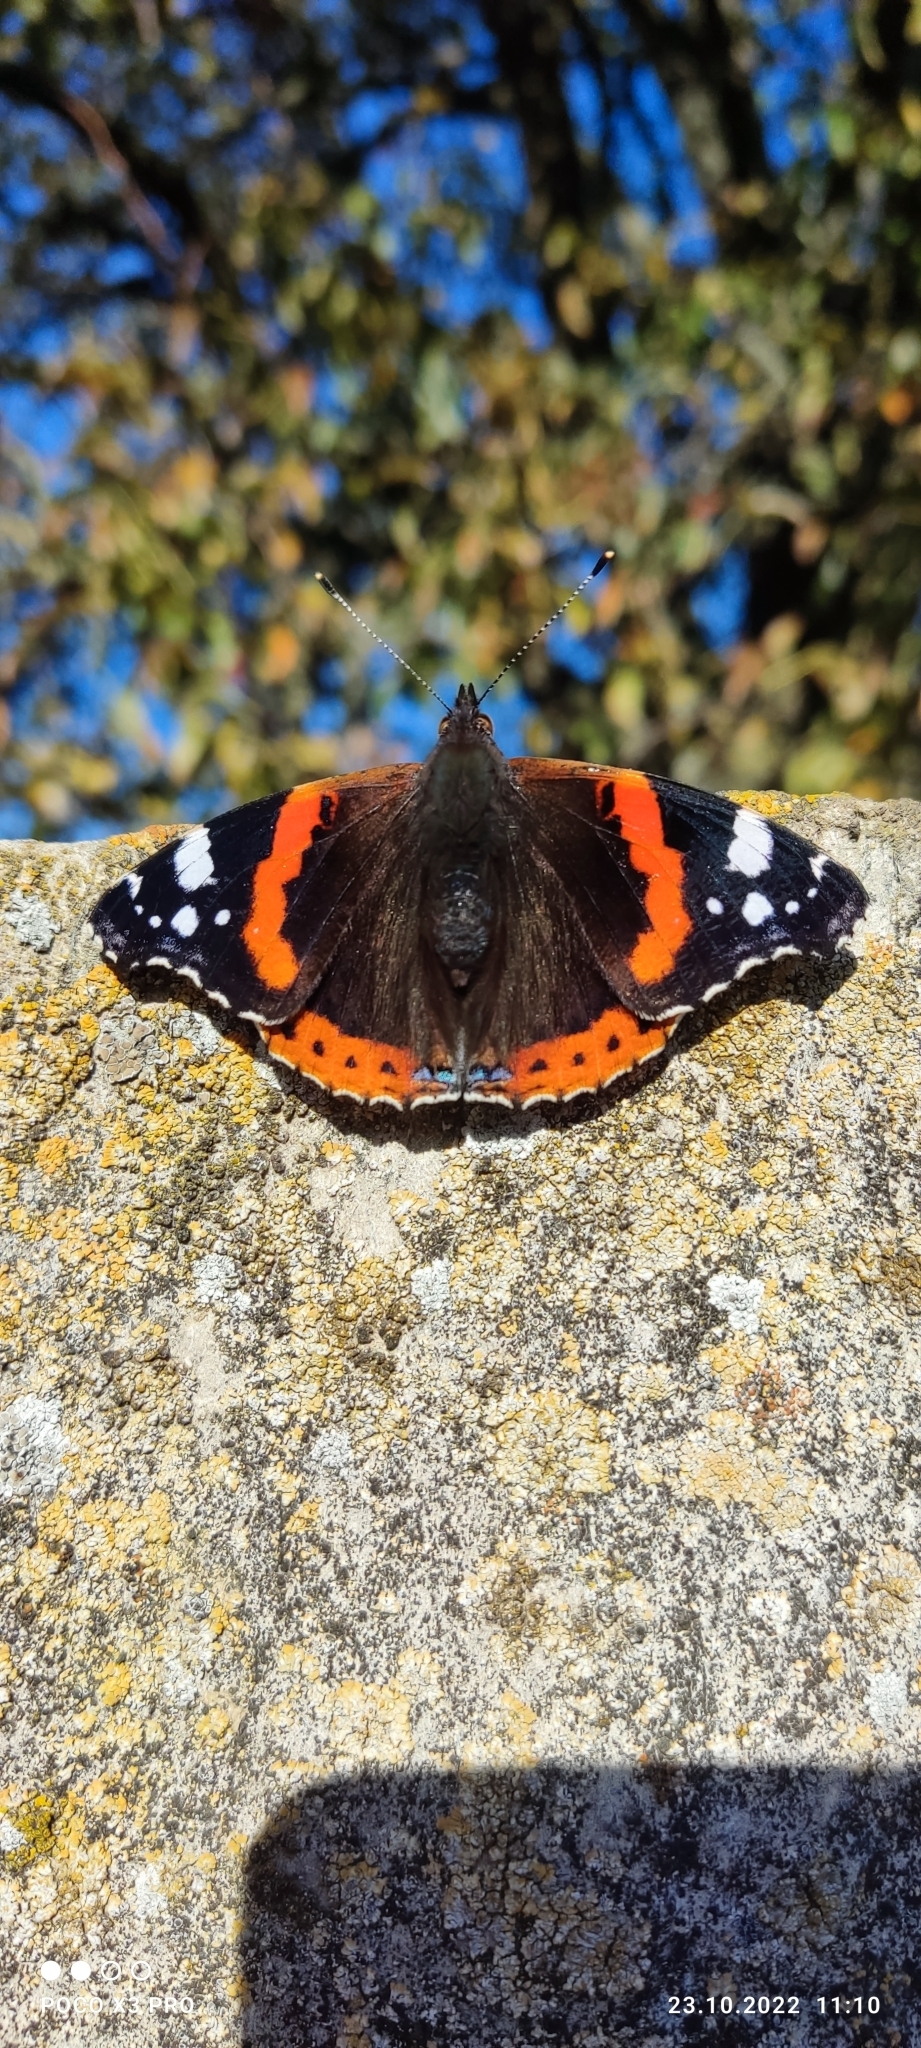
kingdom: Animalia
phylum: Arthropoda
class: Insecta
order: Lepidoptera
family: Nymphalidae
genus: Vanessa
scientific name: Vanessa atalanta
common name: Red admiral
